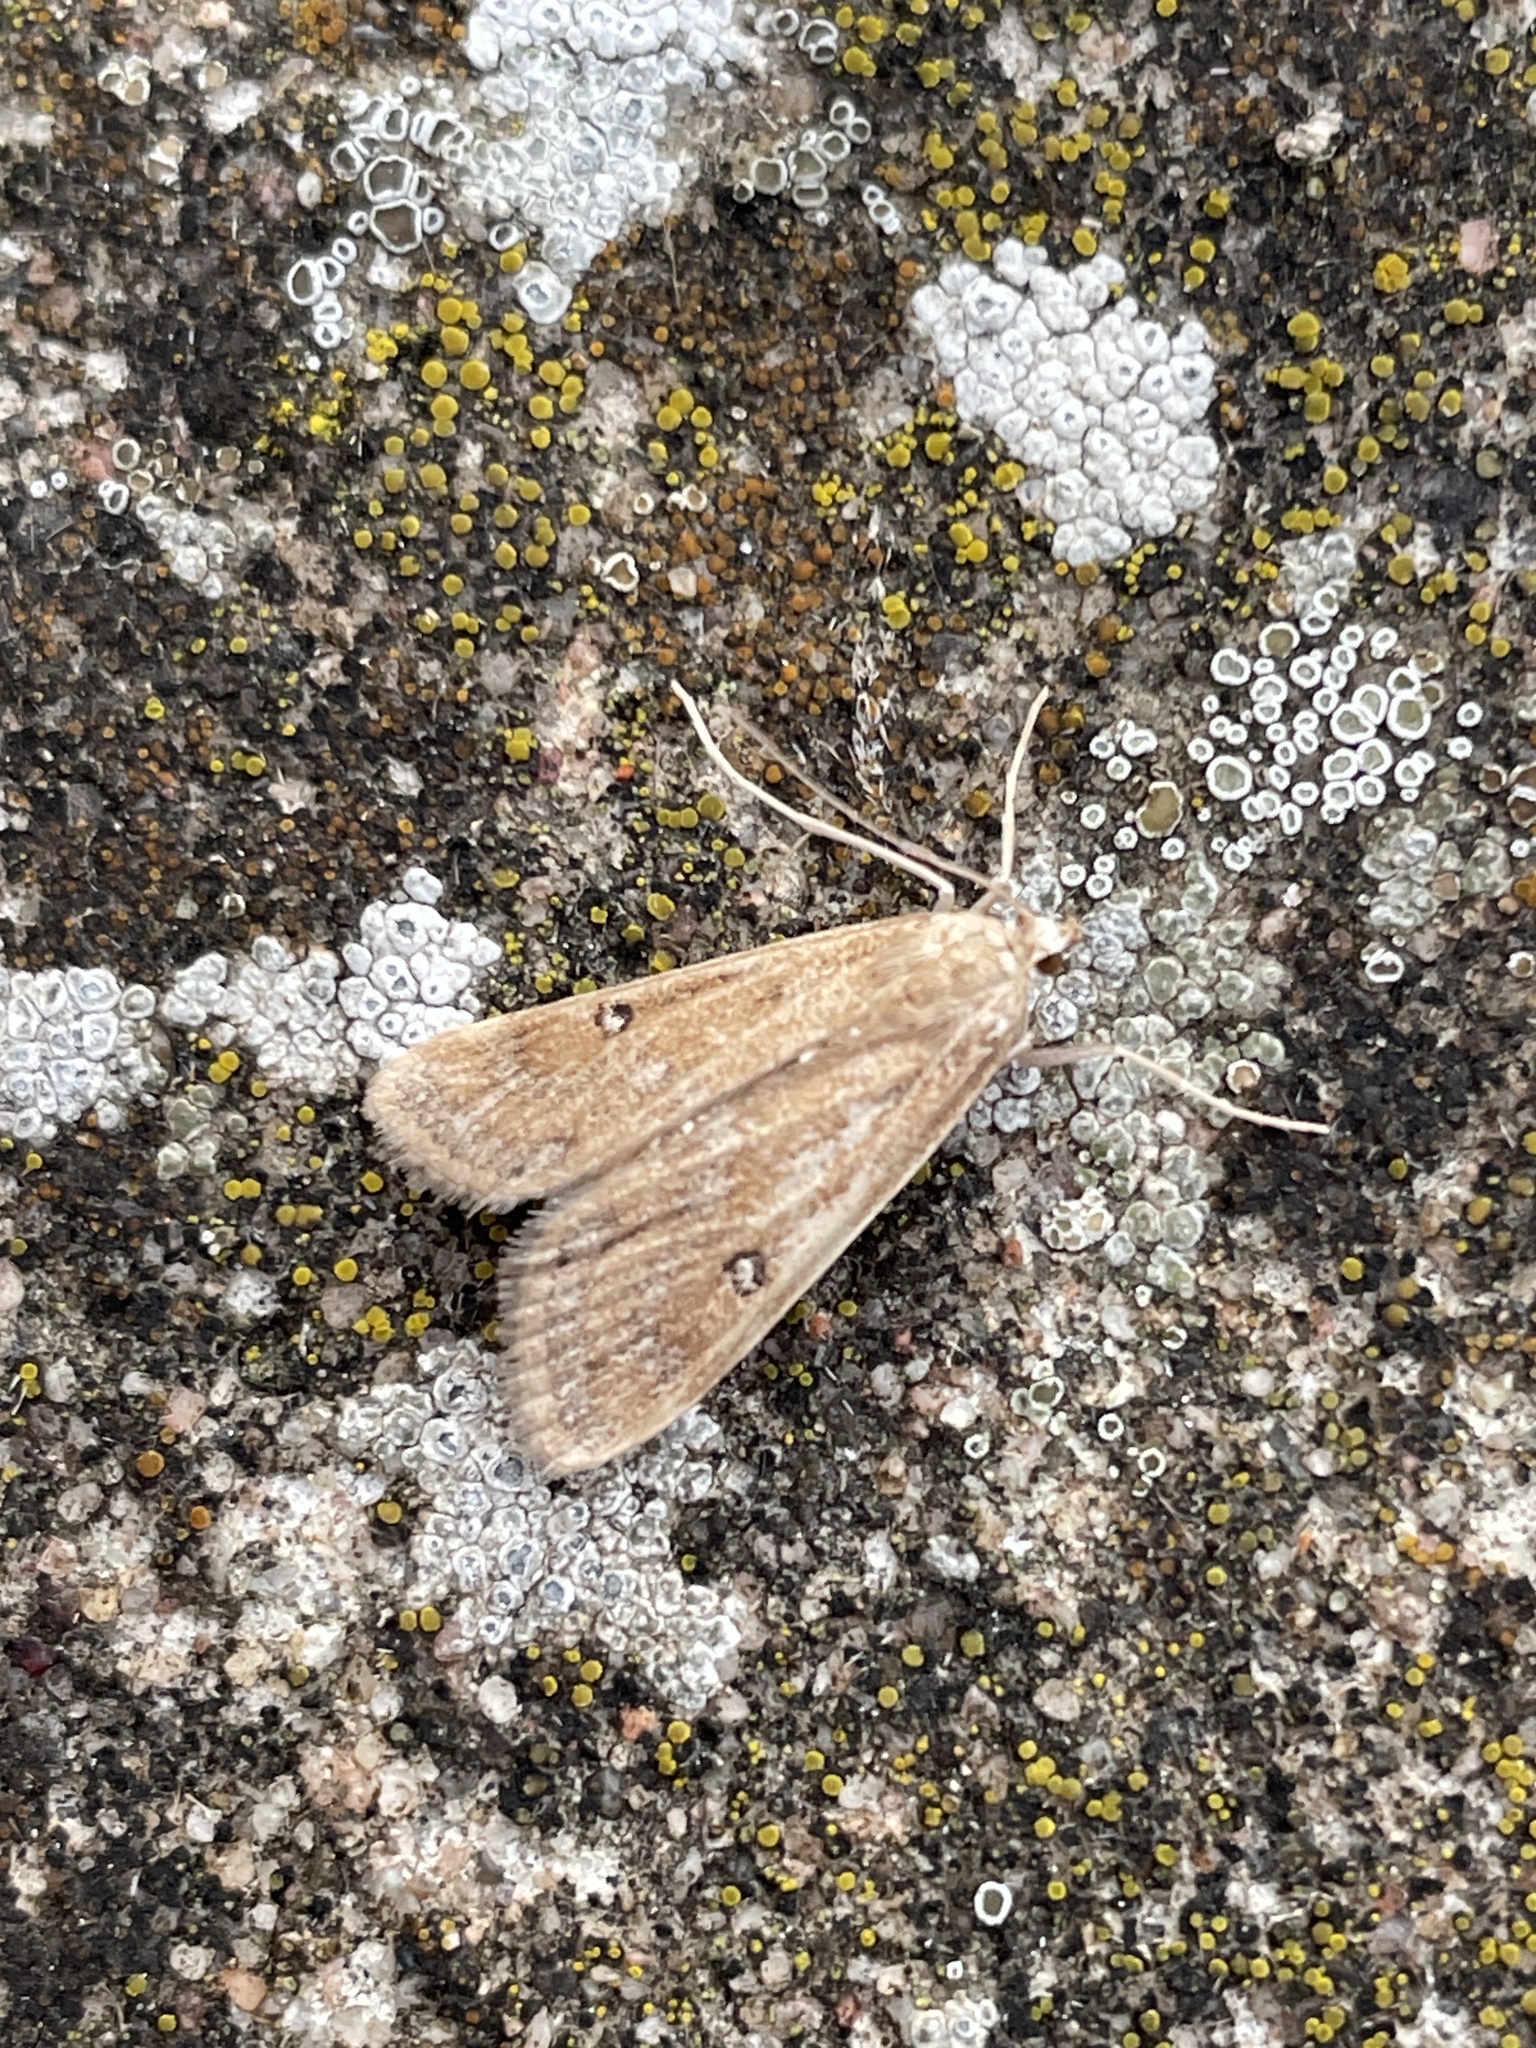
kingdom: Animalia
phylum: Arthropoda
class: Insecta
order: Lepidoptera
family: Crambidae
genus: Parapoynx
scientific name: Parapoynx stratiotata
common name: Ringed china-mark
